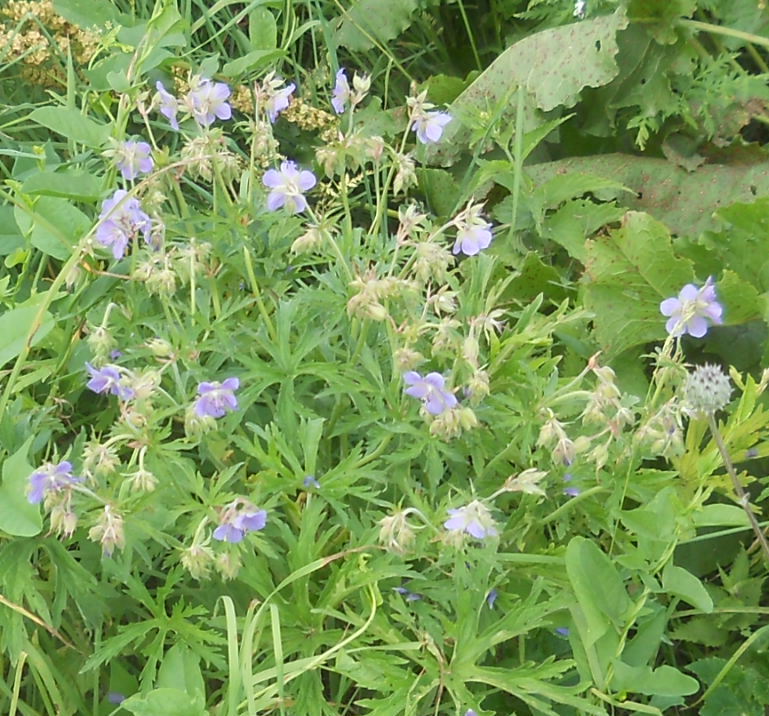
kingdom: Plantae
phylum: Tracheophyta
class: Magnoliopsida
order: Geraniales
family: Geraniaceae
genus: Geranium
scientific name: Geranium pratense
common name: Meadow crane's-bill
